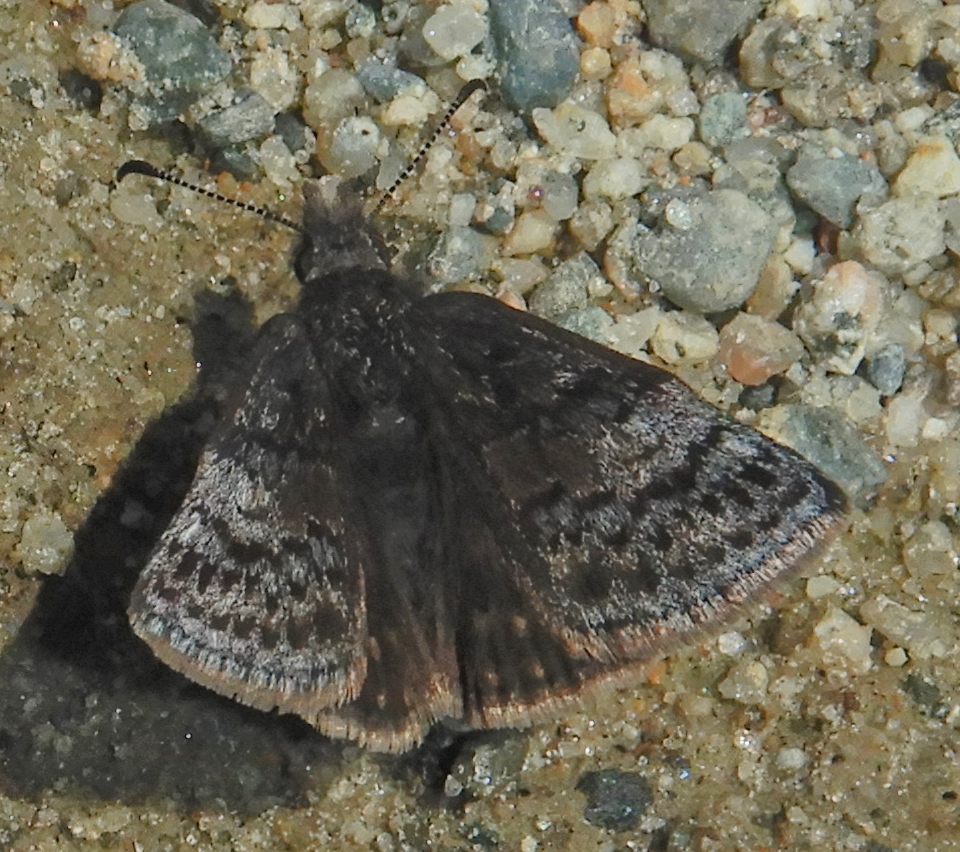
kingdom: Animalia
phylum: Arthropoda
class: Insecta
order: Lepidoptera
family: Hesperiidae
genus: Erynnis
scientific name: Erynnis icelus
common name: Dreamy duskywing
